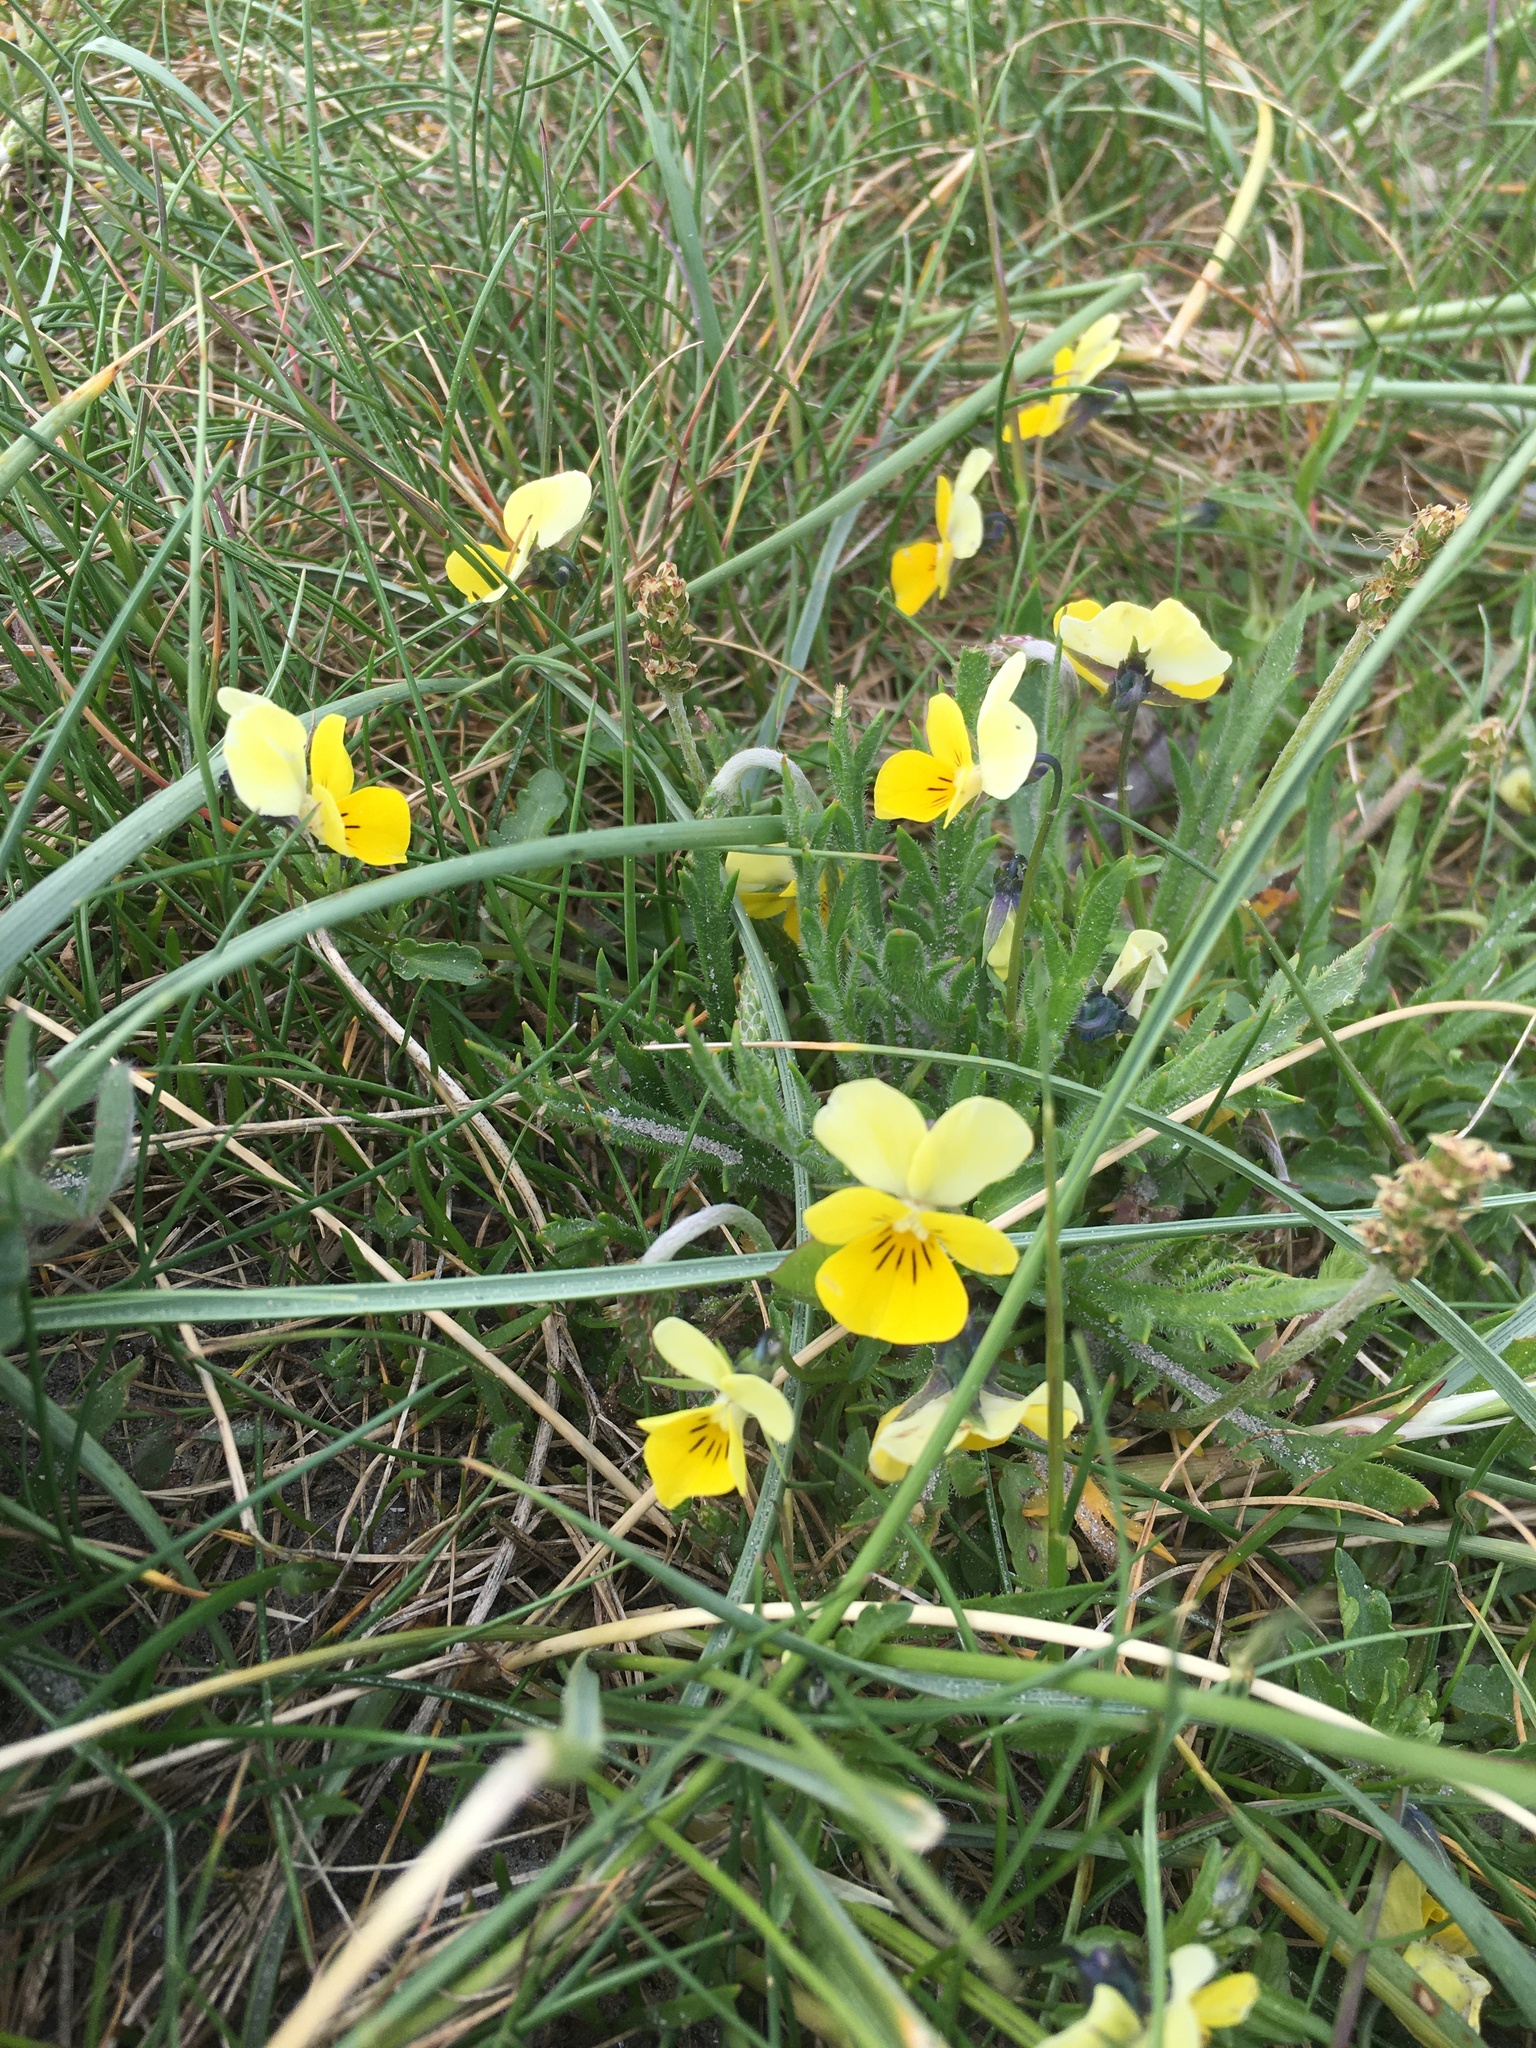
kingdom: Plantae
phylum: Tracheophyta
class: Magnoliopsida
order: Malpighiales
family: Violaceae
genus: Viola
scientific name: Viola tricolor
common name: Pansy
